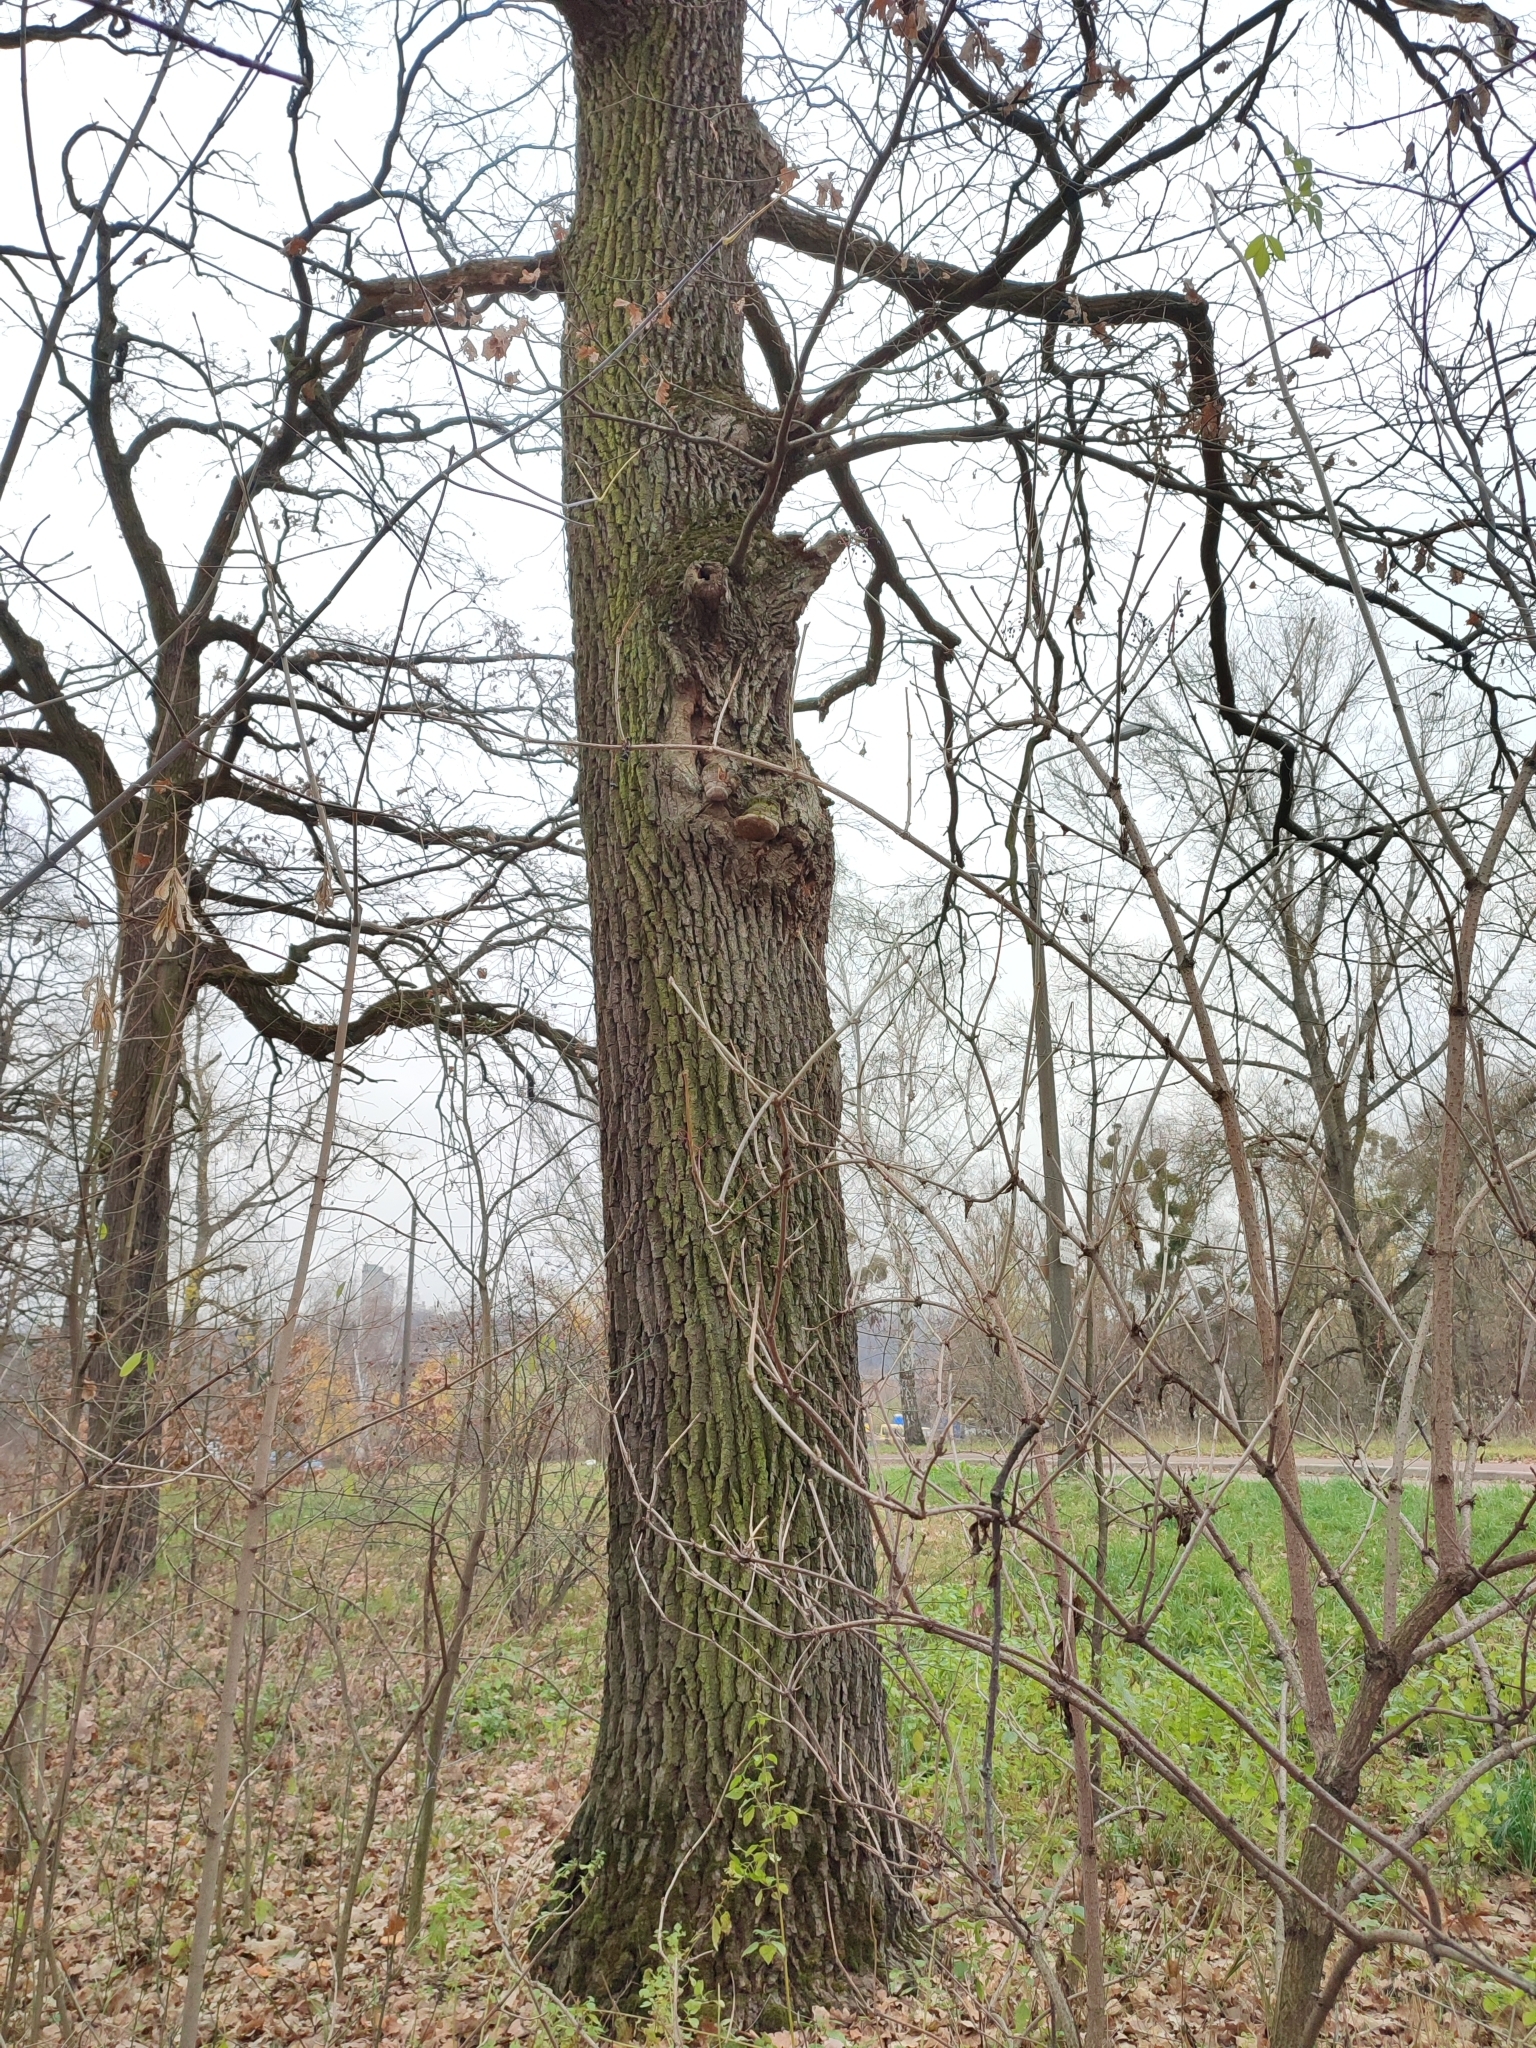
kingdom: Plantae
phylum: Tracheophyta
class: Magnoliopsida
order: Fagales
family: Fagaceae
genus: Quercus
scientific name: Quercus robur
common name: Pedunculate oak
